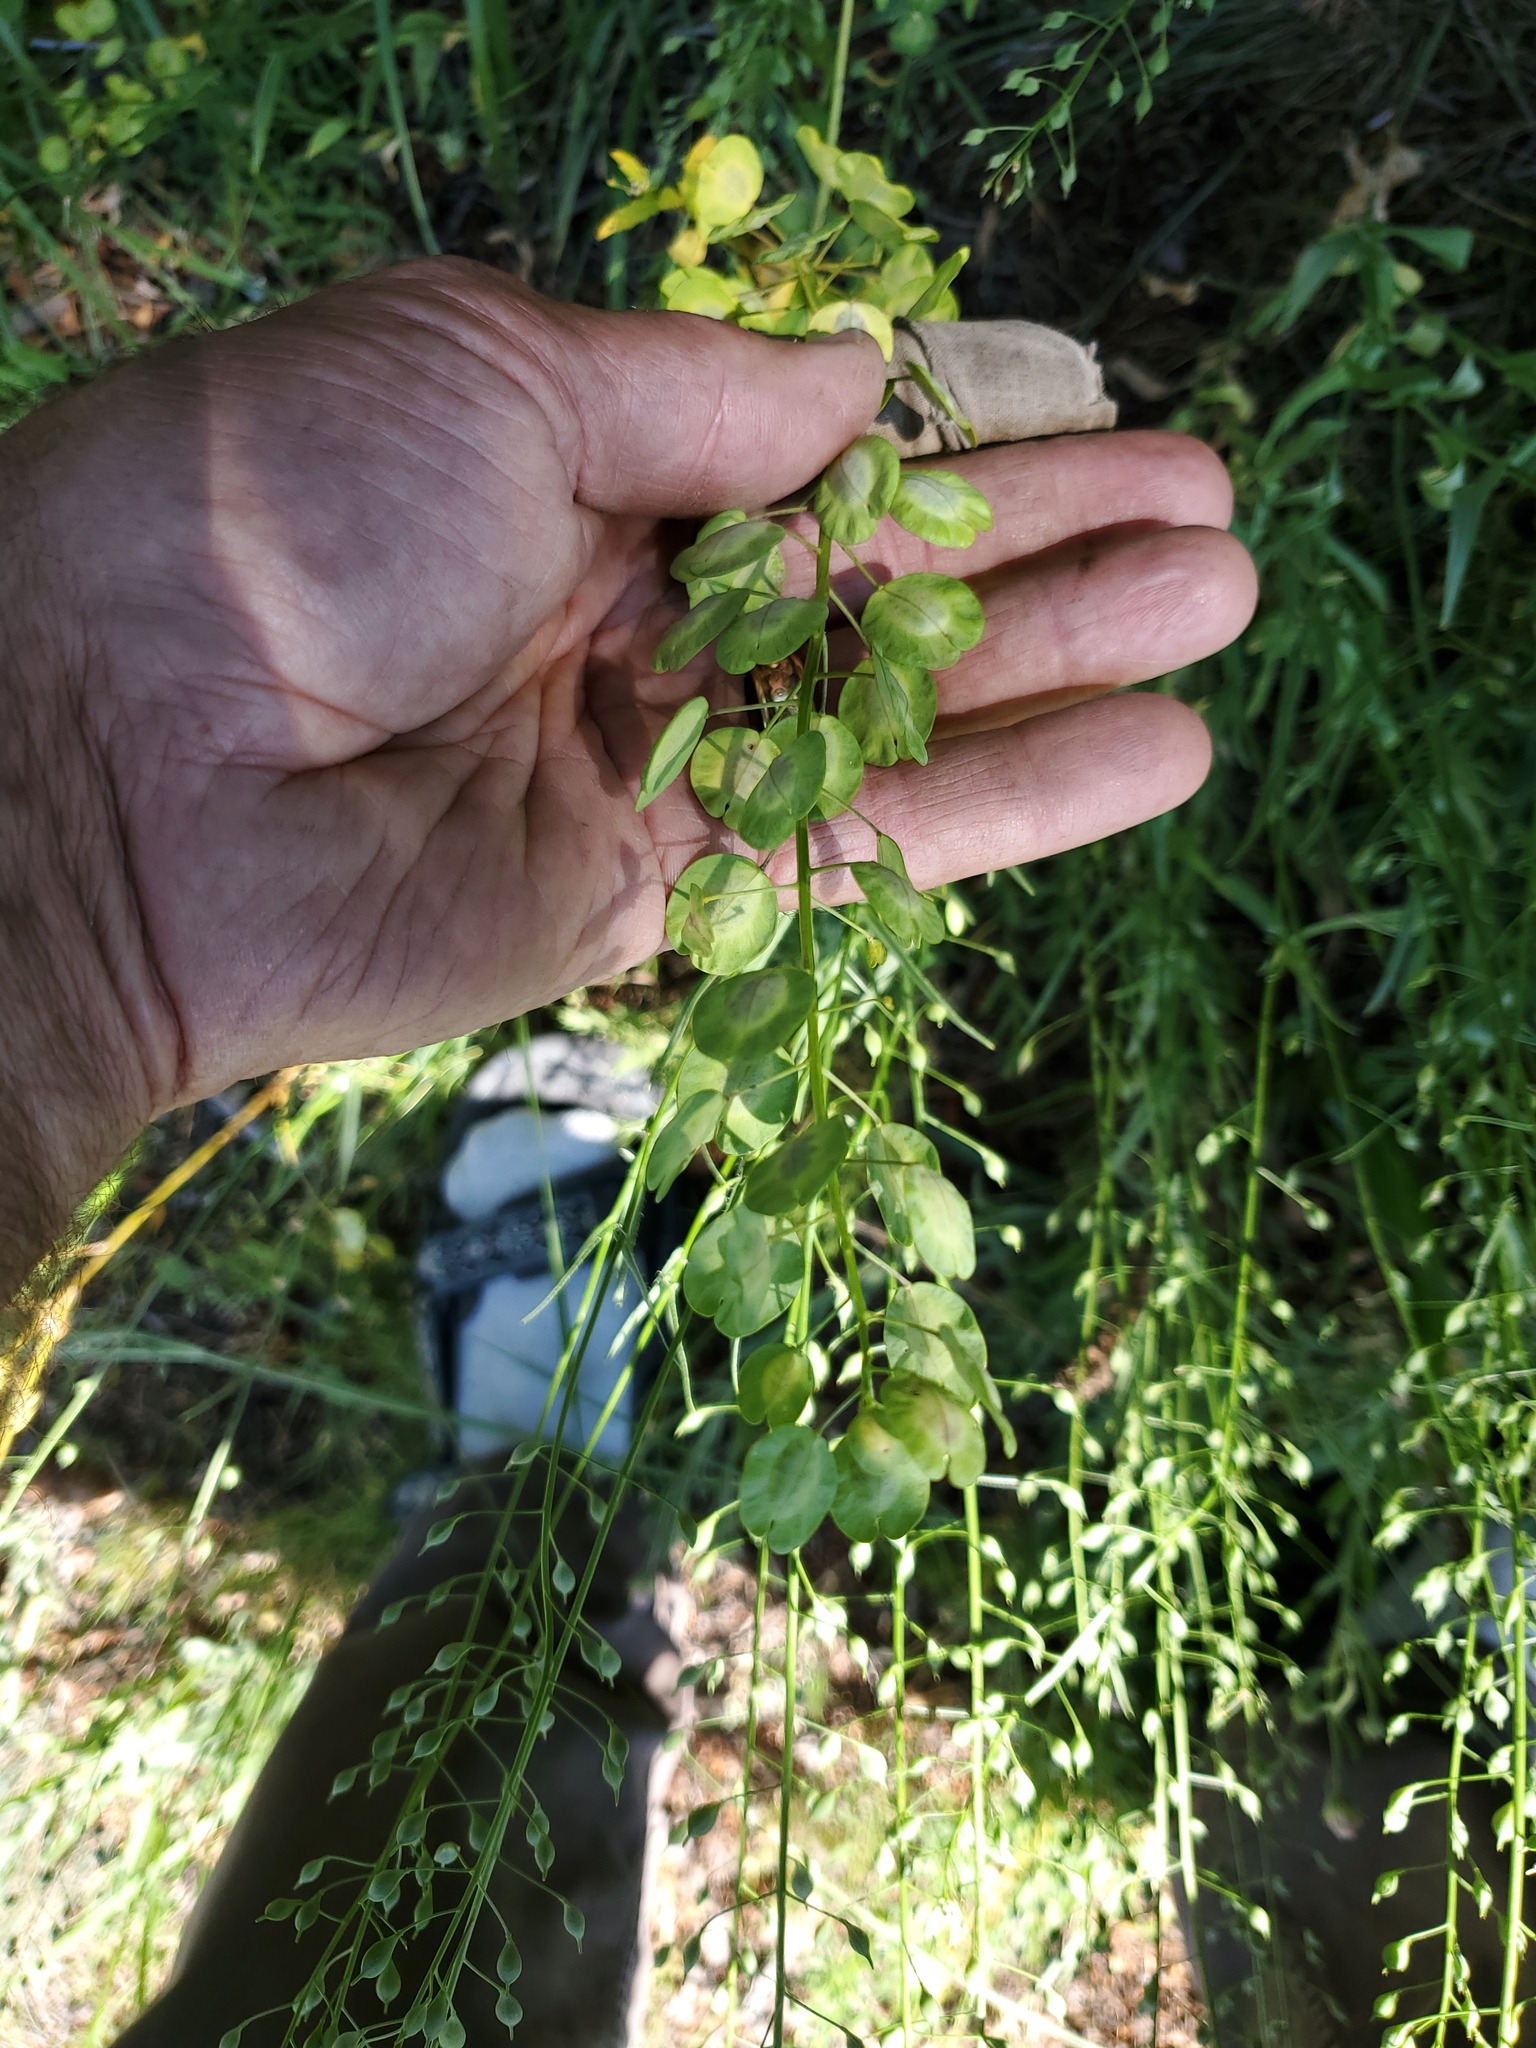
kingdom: Plantae
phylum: Tracheophyta
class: Magnoliopsida
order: Brassicales
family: Brassicaceae
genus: Thlaspi
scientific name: Thlaspi arvense
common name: Field pennycress
